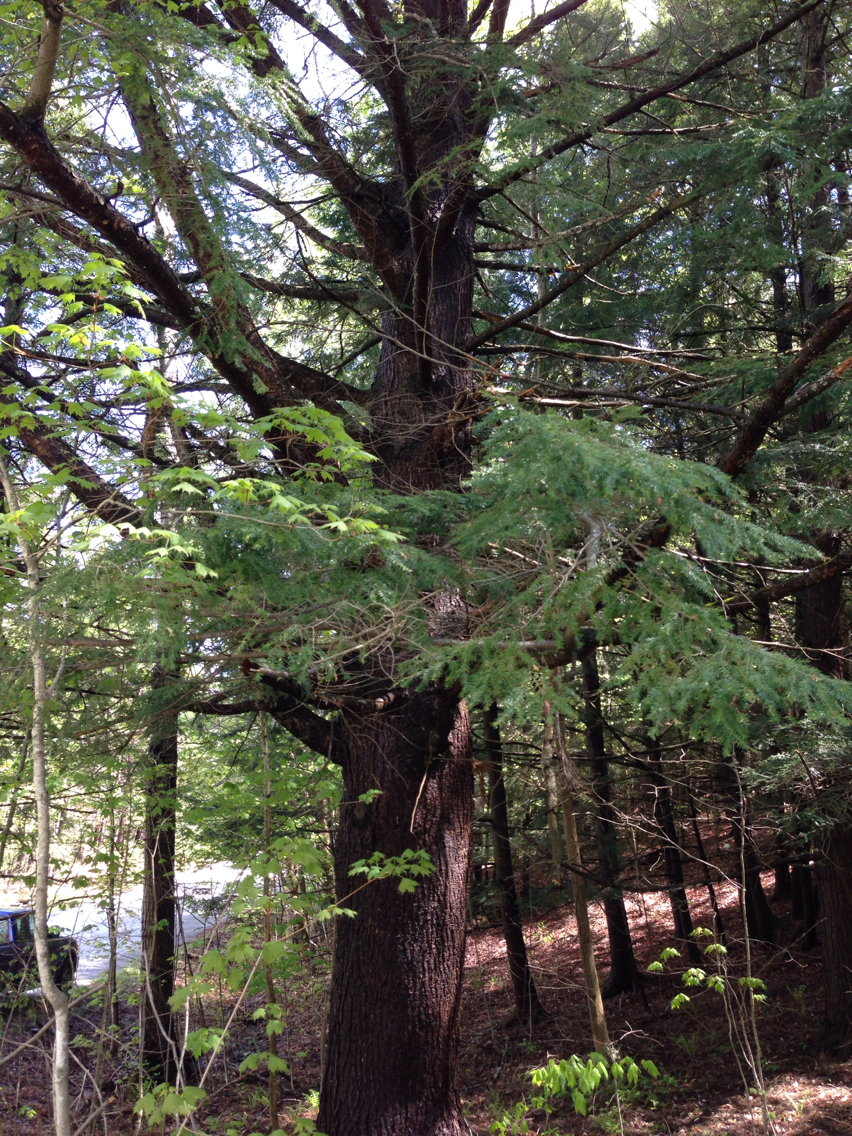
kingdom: Plantae
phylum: Tracheophyta
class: Pinopsida
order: Pinales
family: Pinaceae
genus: Tsuga
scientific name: Tsuga canadensis
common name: Eastern hemlock
